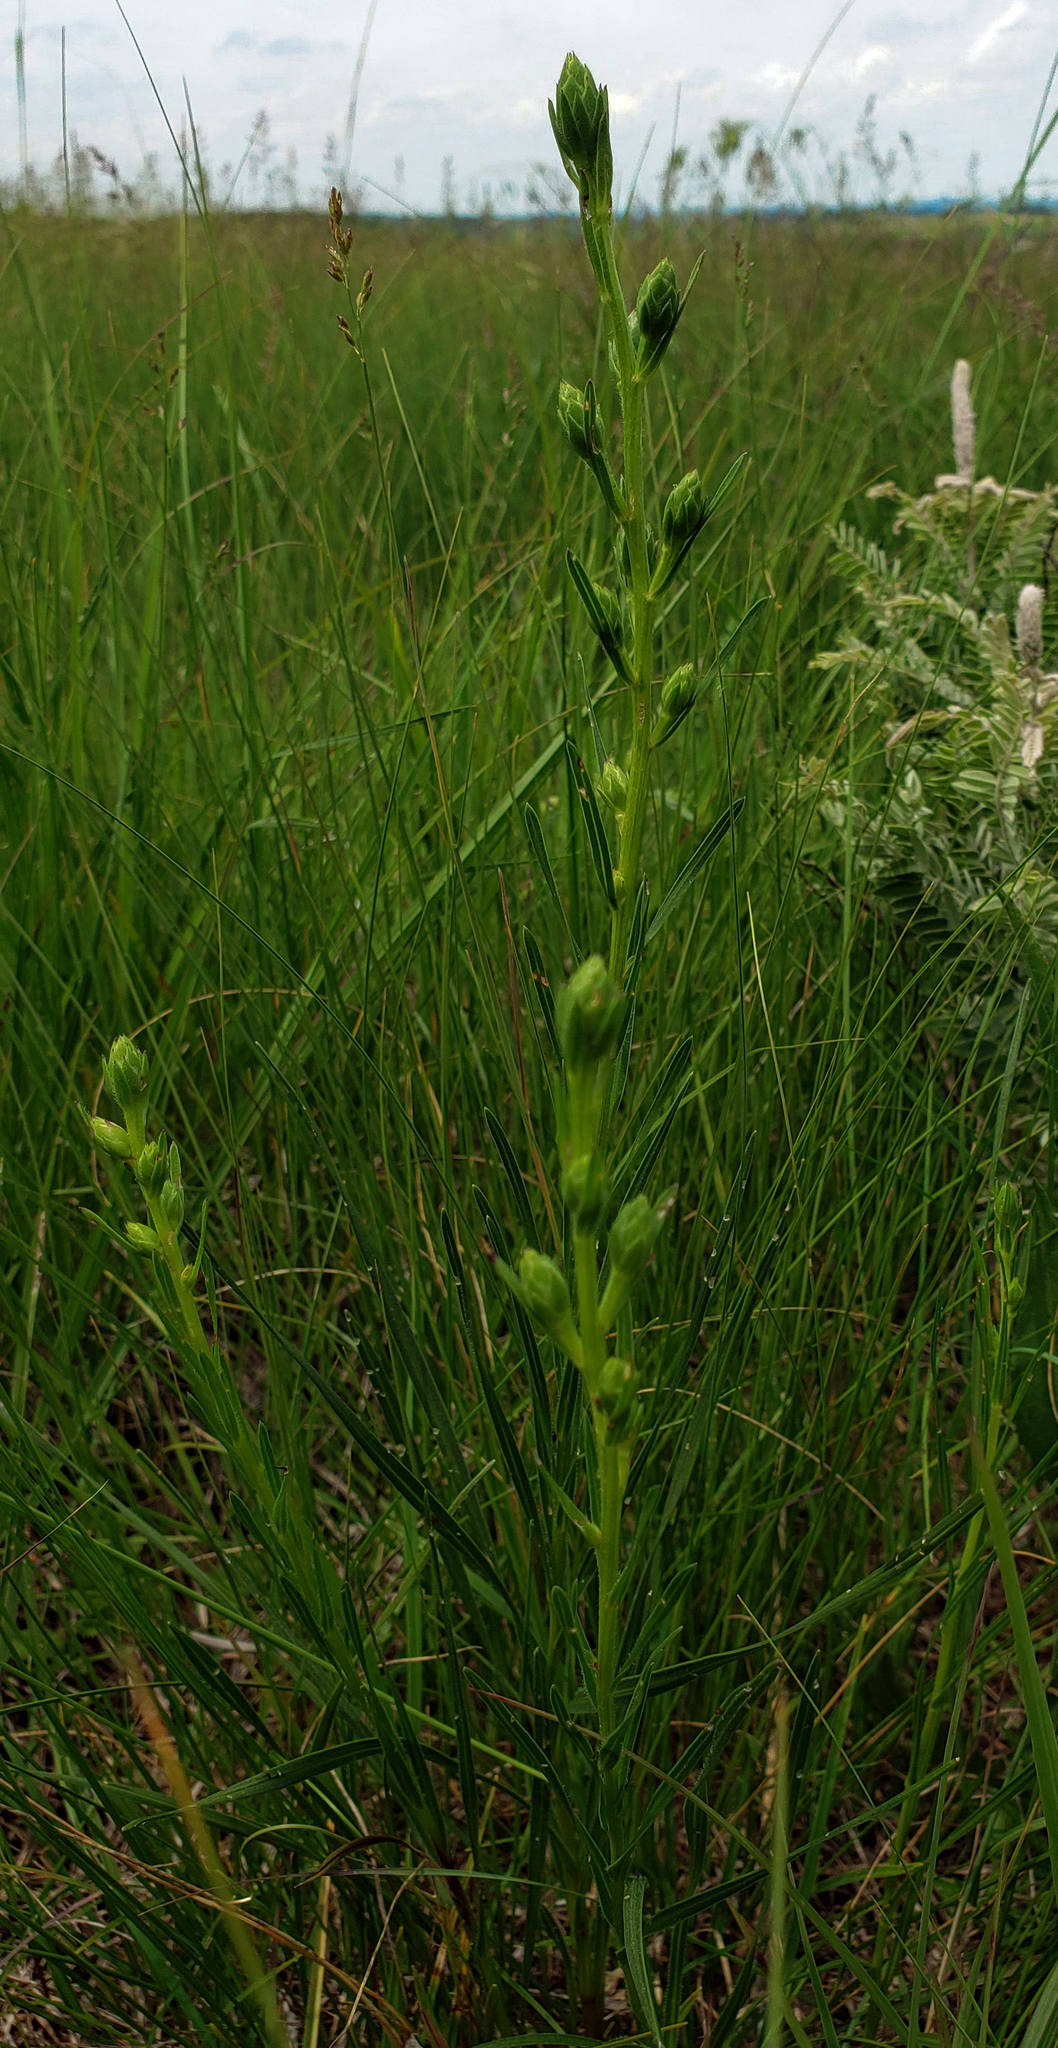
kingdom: Plantae
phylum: Tracheophyta
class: Magnoliopsida
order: Asterales
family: Asteraceae
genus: Liatris
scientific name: Liatris cylindracea
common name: Few-head blazingstar
